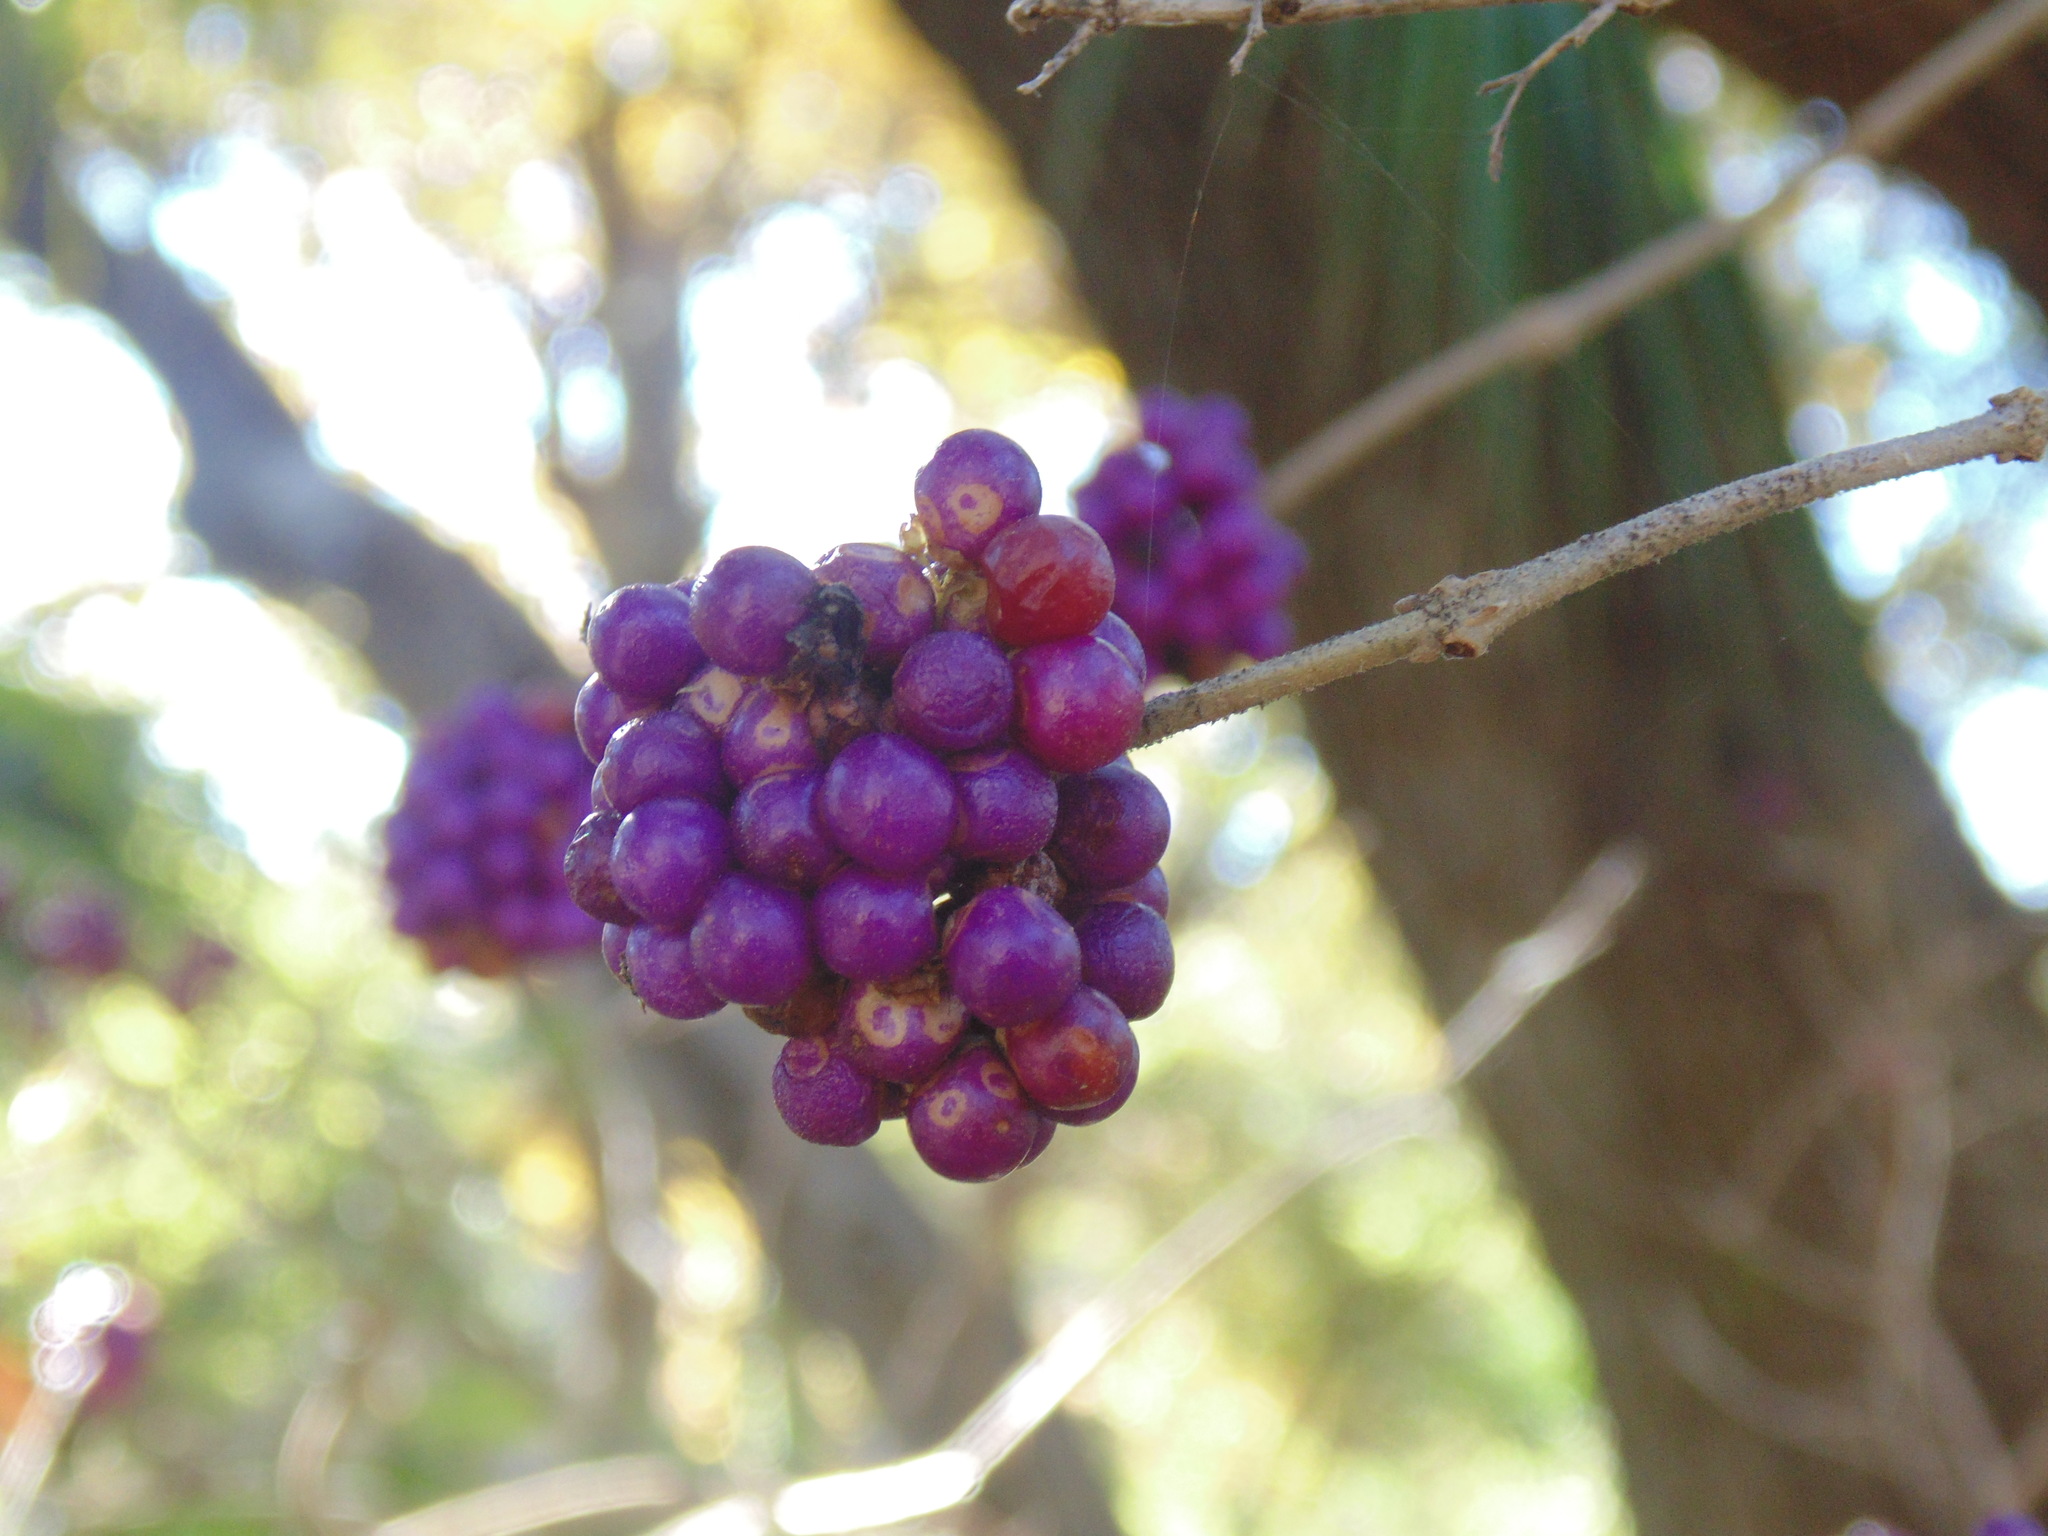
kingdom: Plantae
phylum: Tracheophyta
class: Magnoliopsida
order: Lamiales
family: Lamiaceae
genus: Callicarpa
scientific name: Callicarpa americana
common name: American beautyberry
